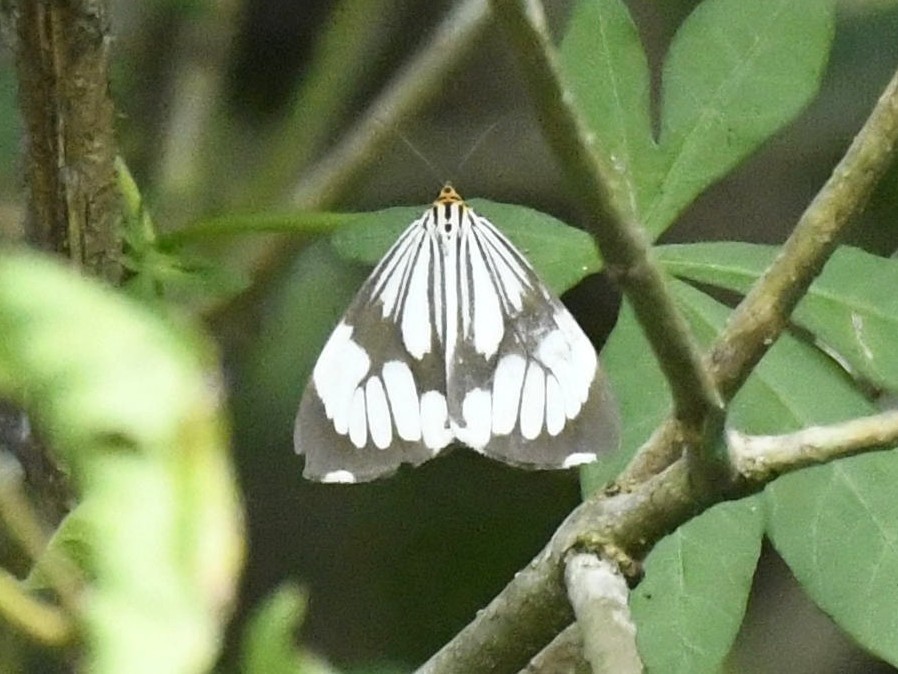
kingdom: Animalia
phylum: Arthropoda
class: Insecta
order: Lepidoptera
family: Erebidae
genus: Nyctemera
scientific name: Nyctemera coleta
